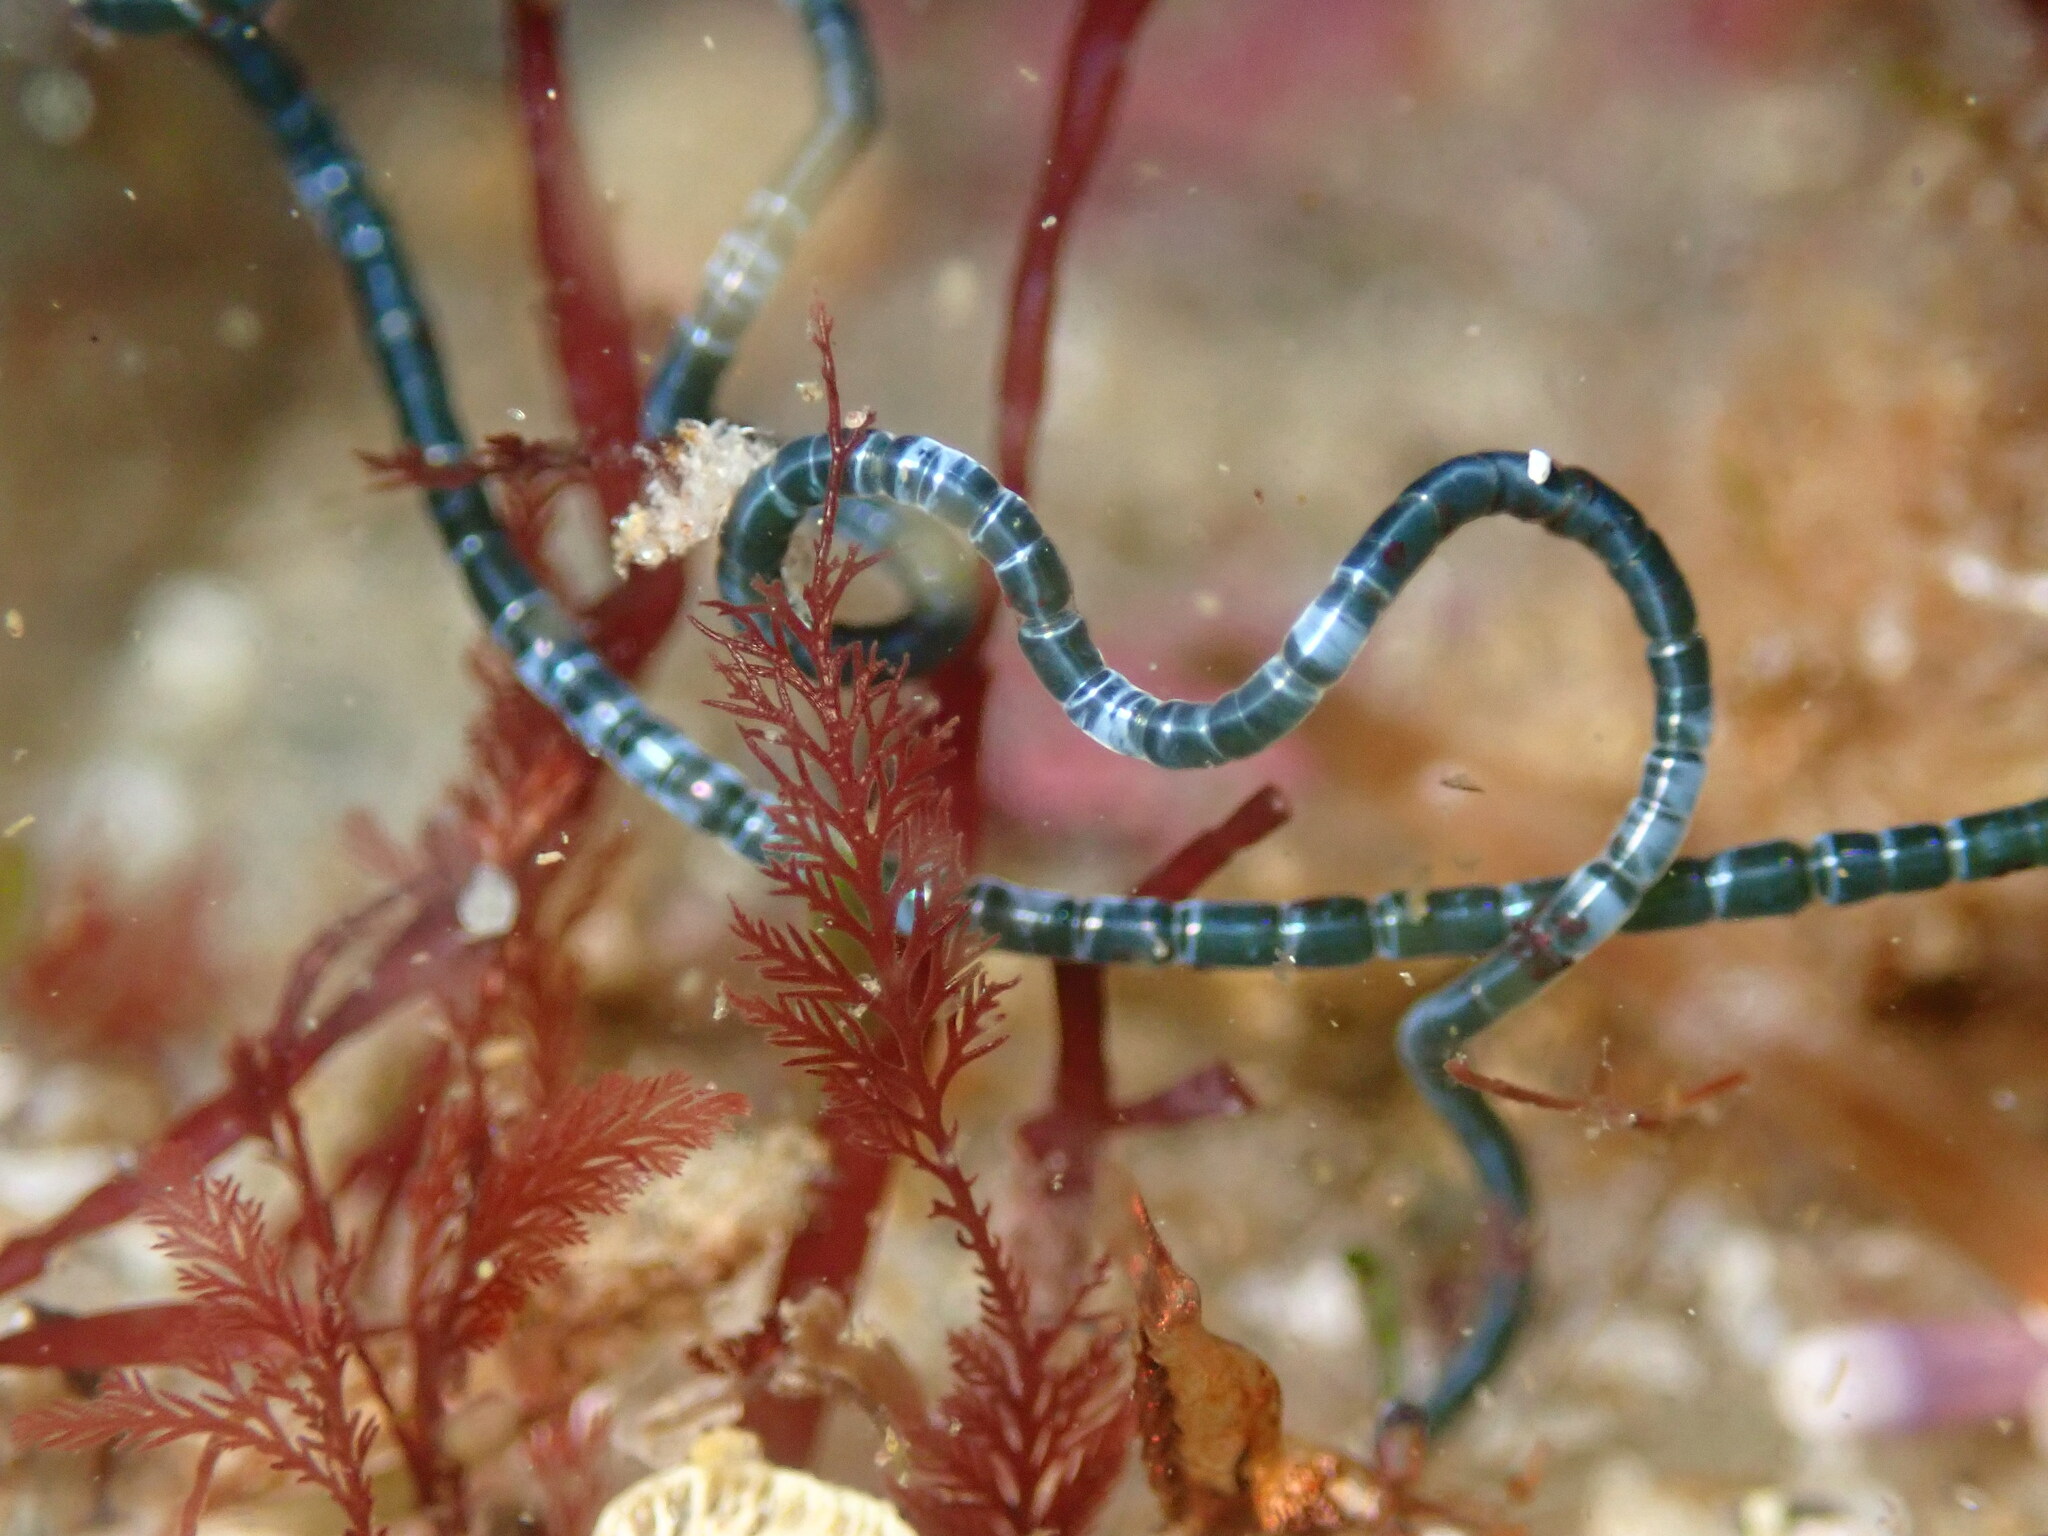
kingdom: Plantae
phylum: Chlorophyta
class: Ulvophyceae
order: Cladophorales
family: Cladophoraceae
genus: Chaetomorpha
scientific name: Chaetomorpha spiralis
